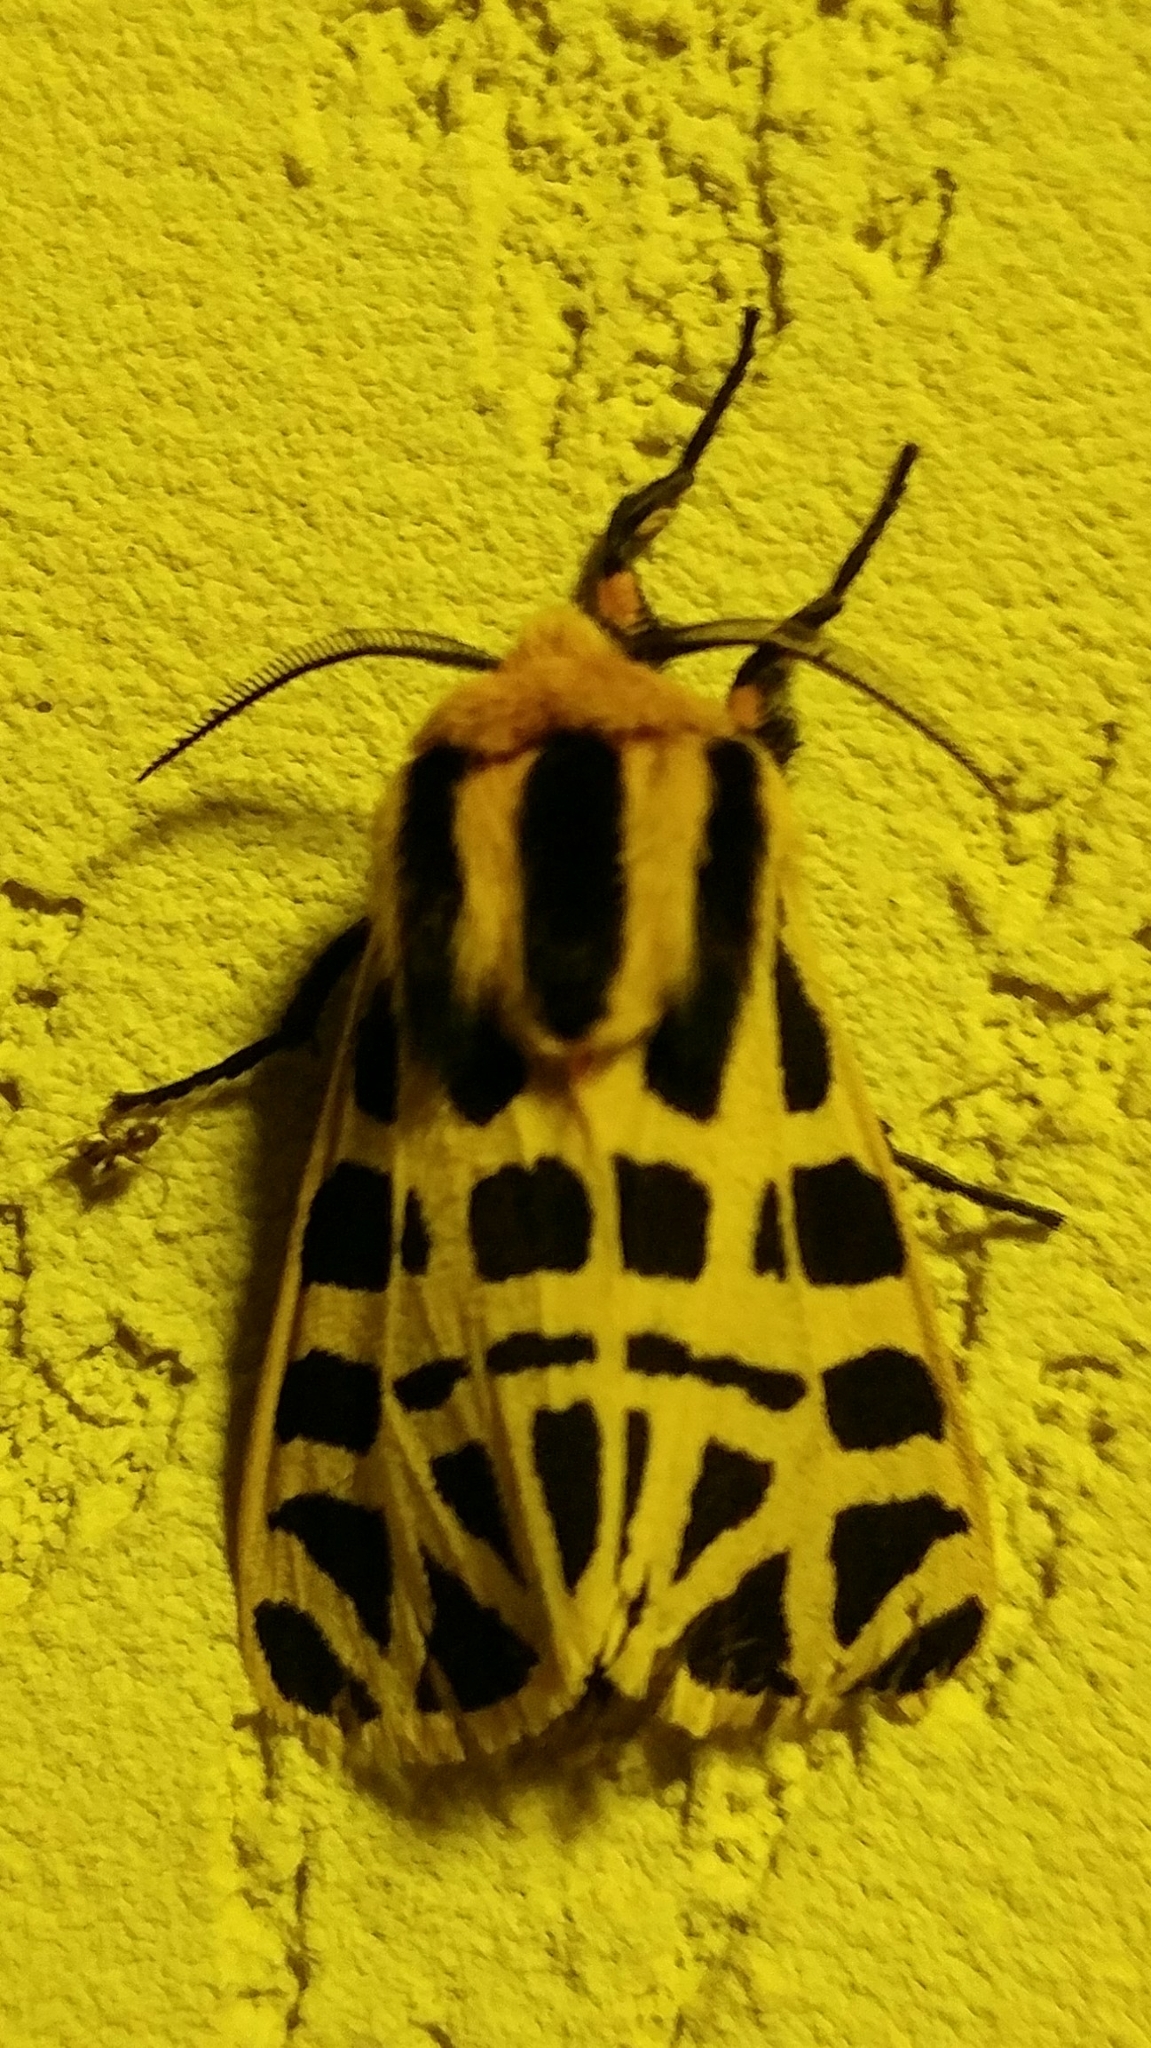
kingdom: Animalia
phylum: Arthropoda
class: Insecta
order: Lepidoptera
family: Erebidae
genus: Apantesis
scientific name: Apantesis
